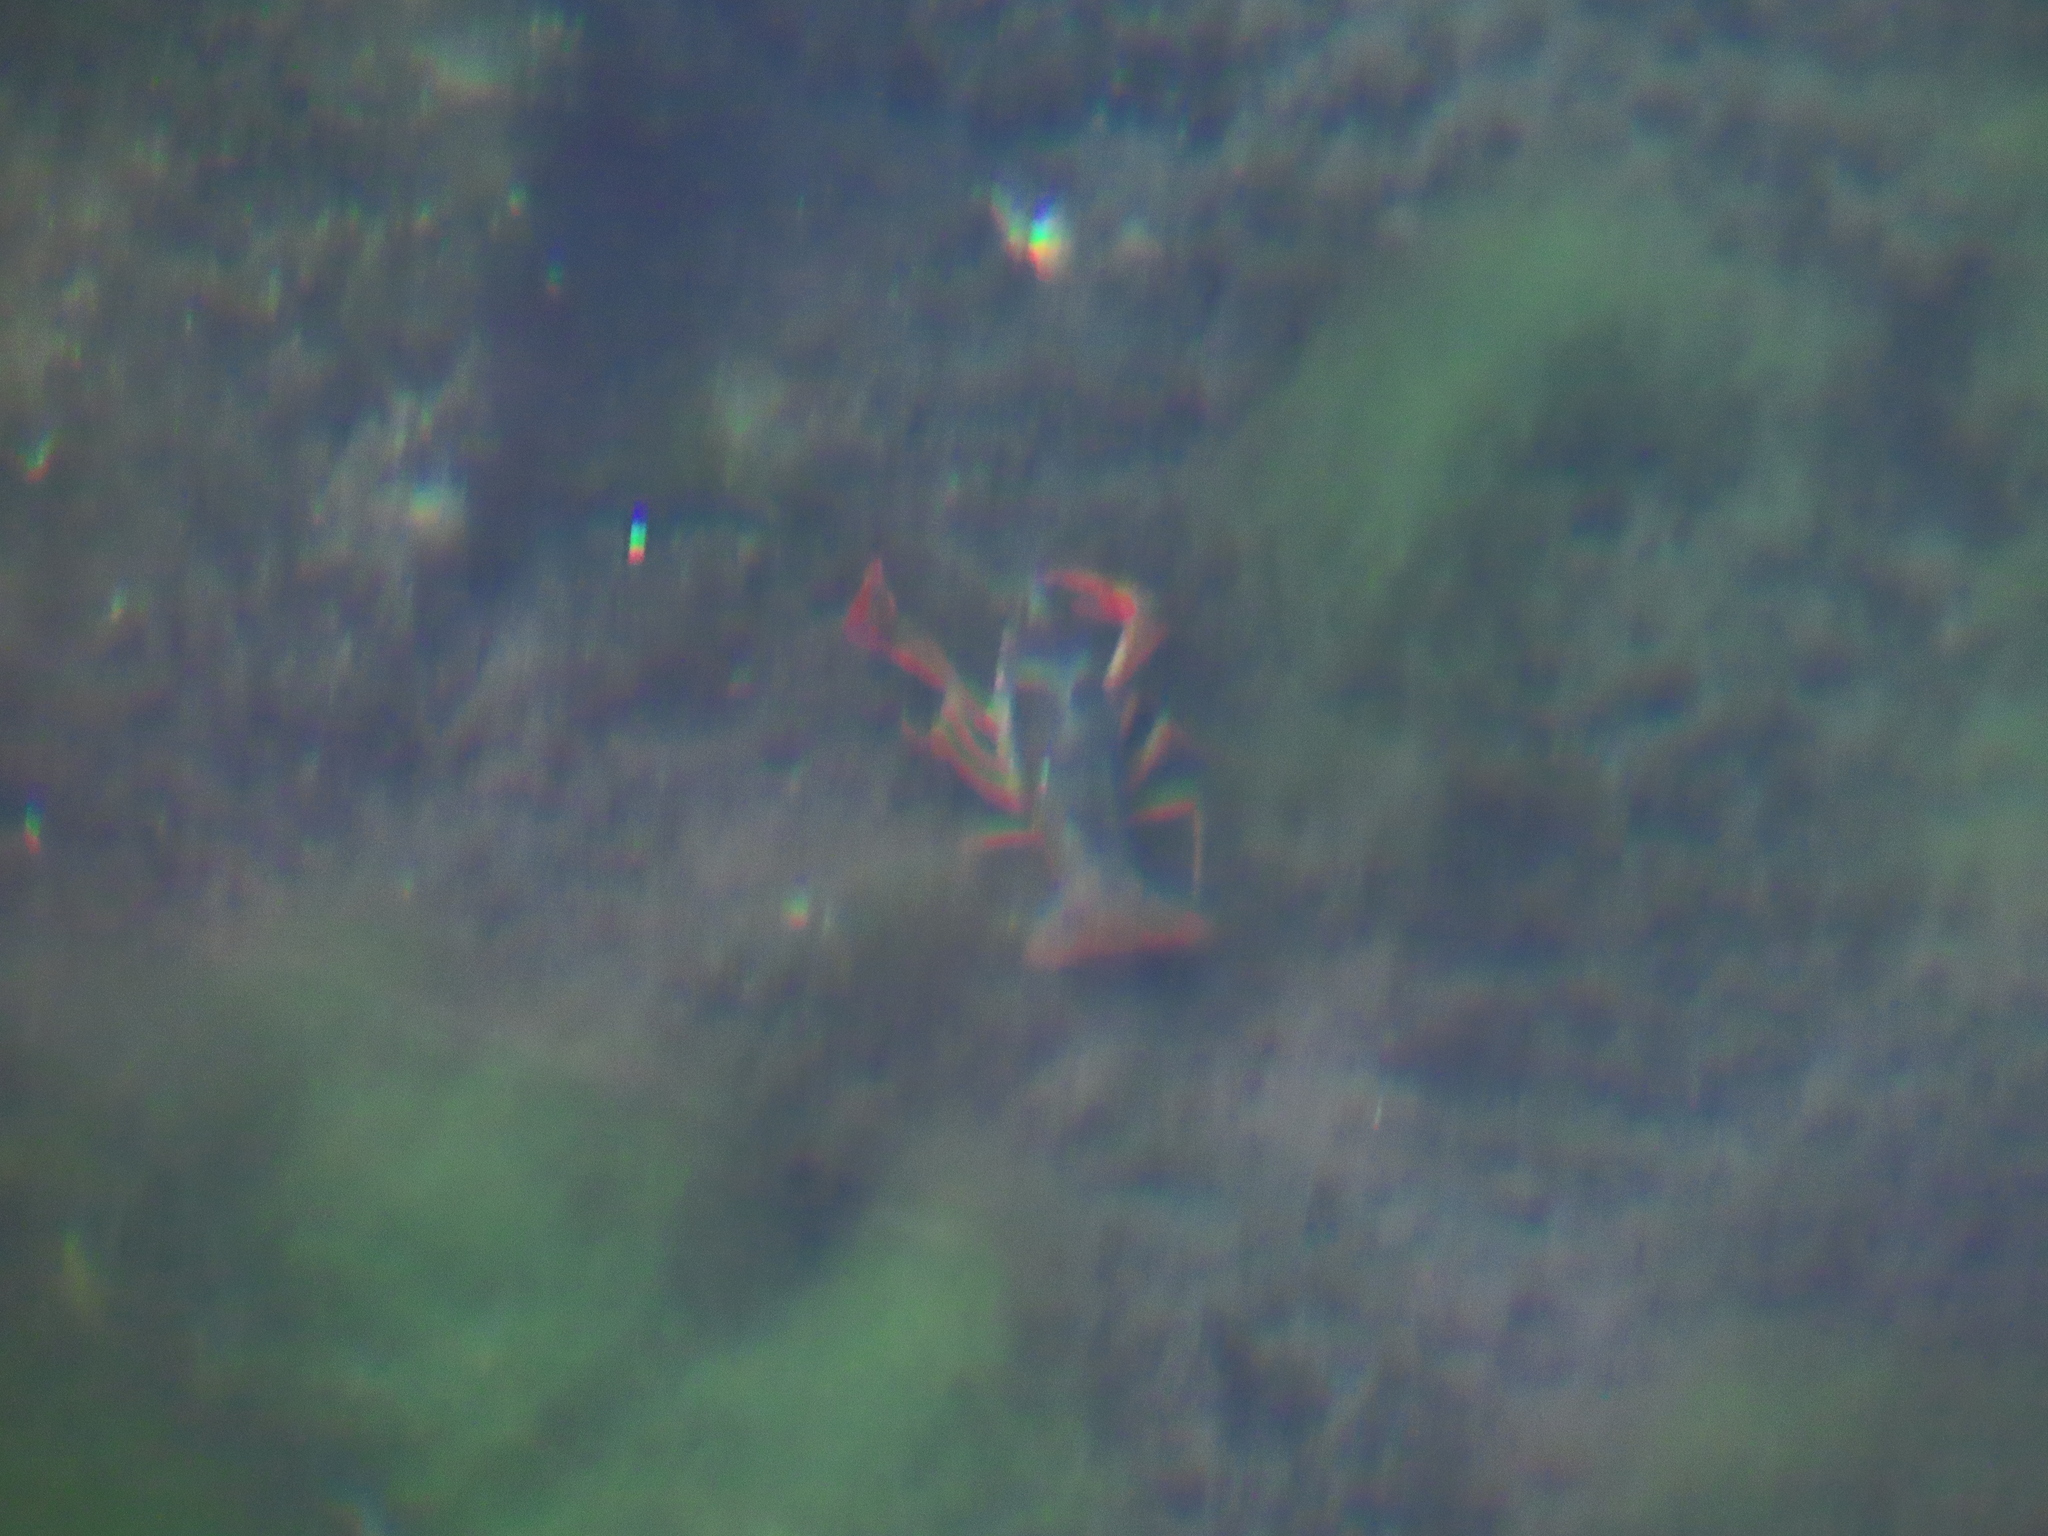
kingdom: Animalia
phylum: Arthropoda
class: Malacostraca
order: Decapoda
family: Cambaridae
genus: Procambarus
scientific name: Procambarus clarkii
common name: Red swamp crayfish
